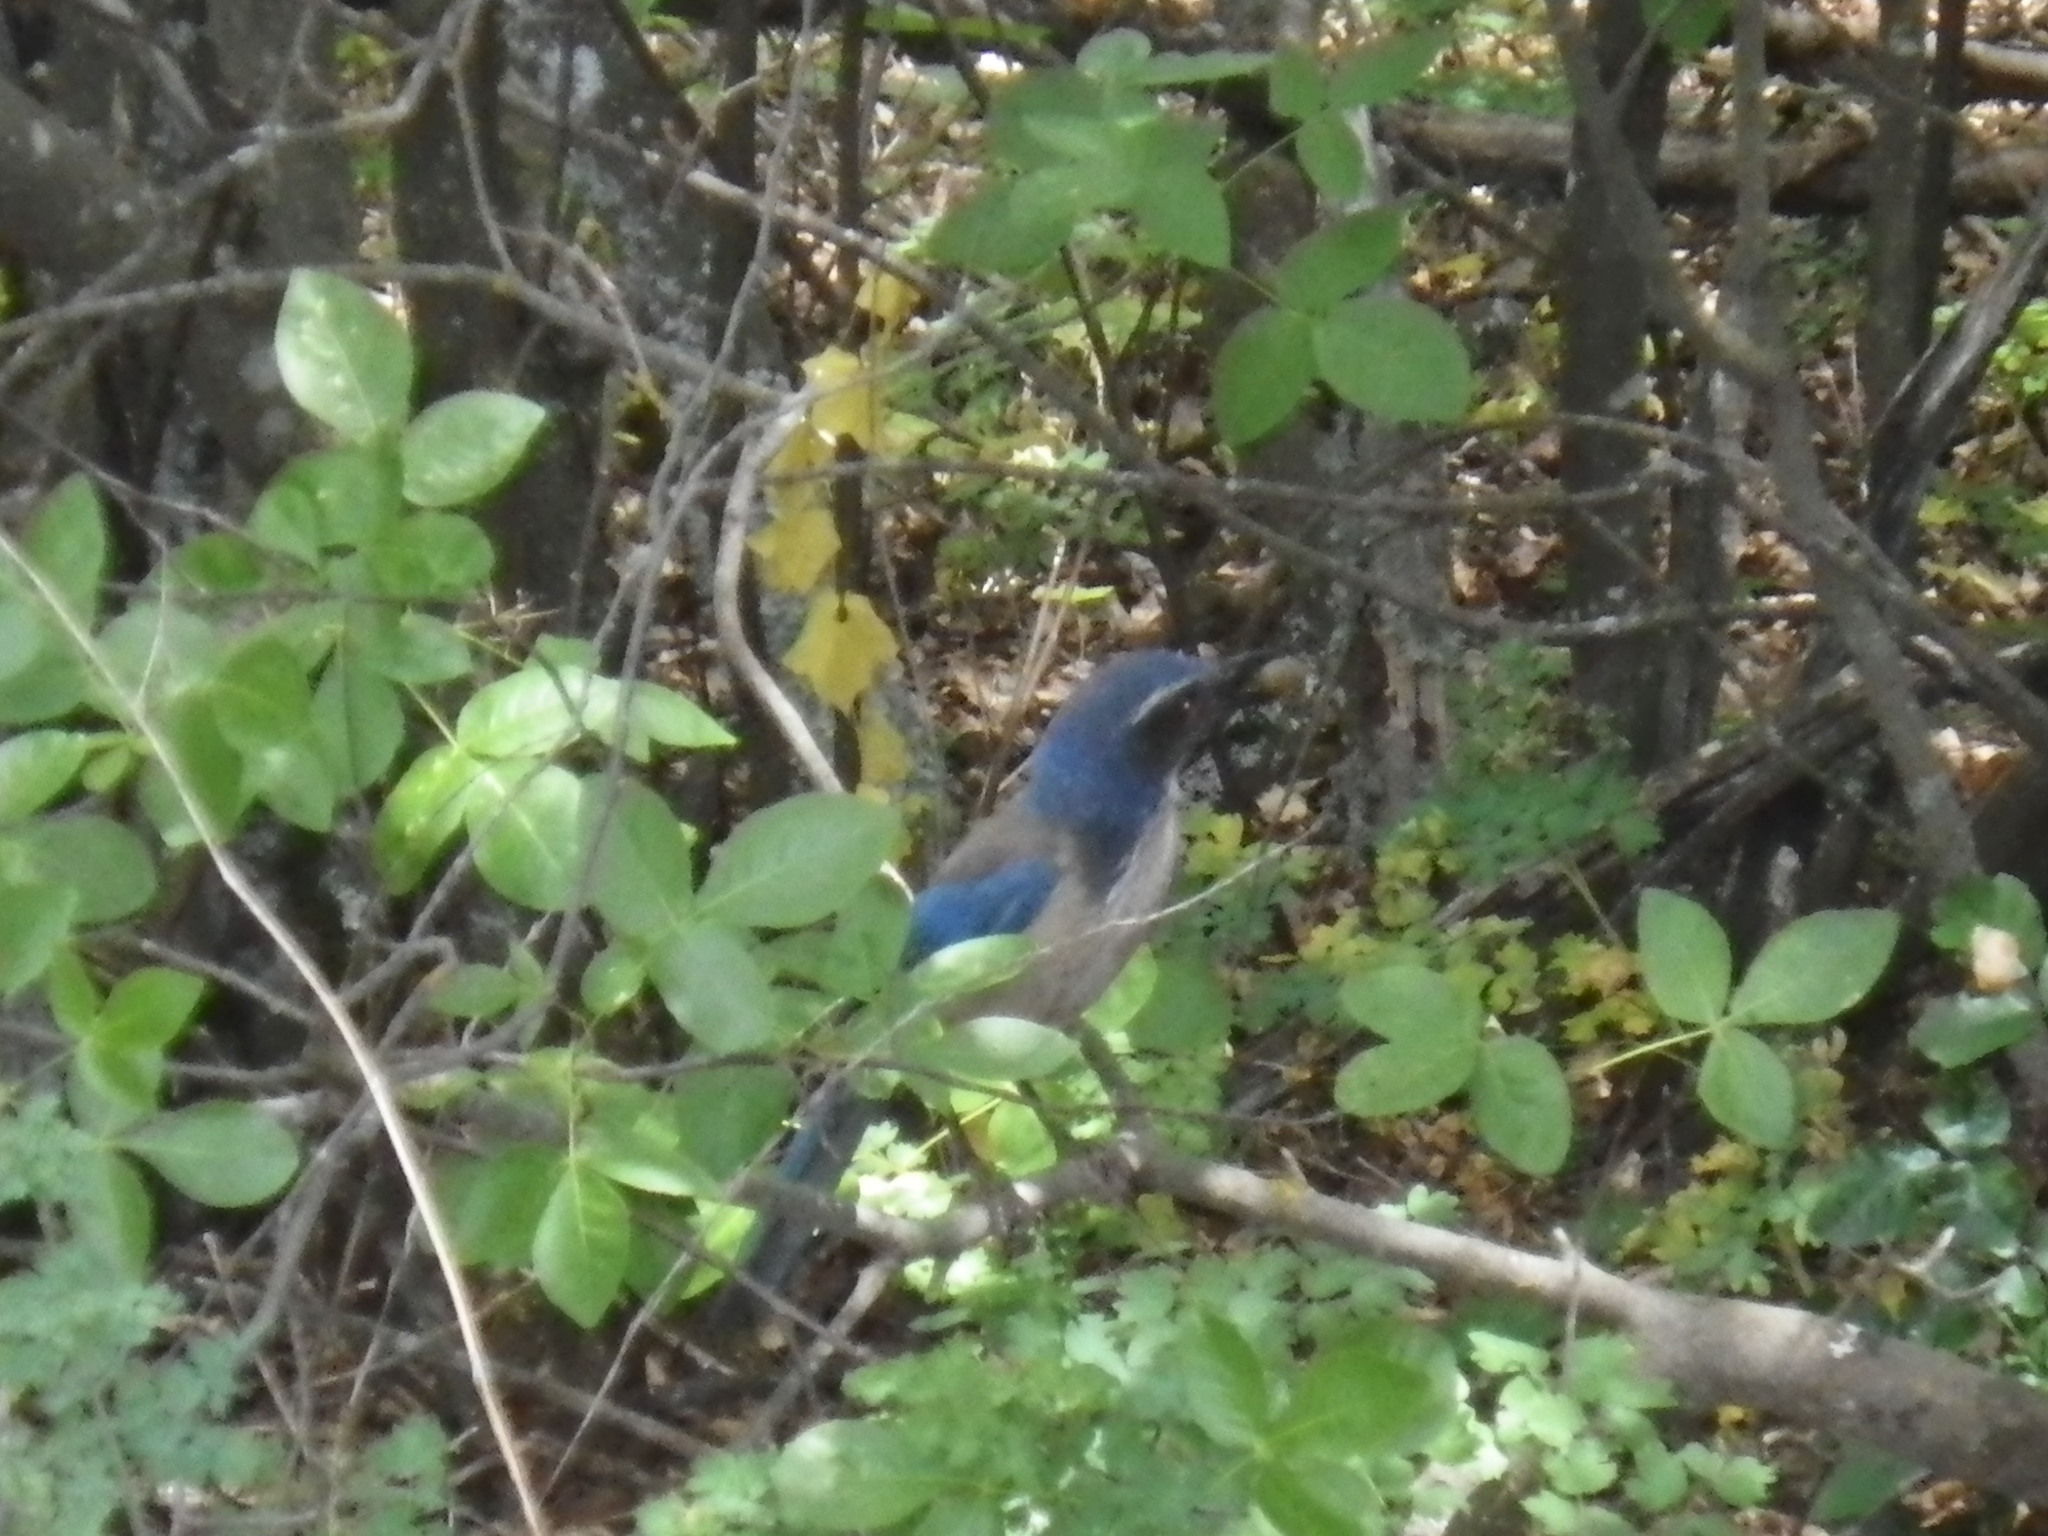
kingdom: Animalia
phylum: Chordata
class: Aves
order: Passeriformes
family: Corvidae
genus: Aphelocoma
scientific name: Aphelocoma californica
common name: California scrub-jay
